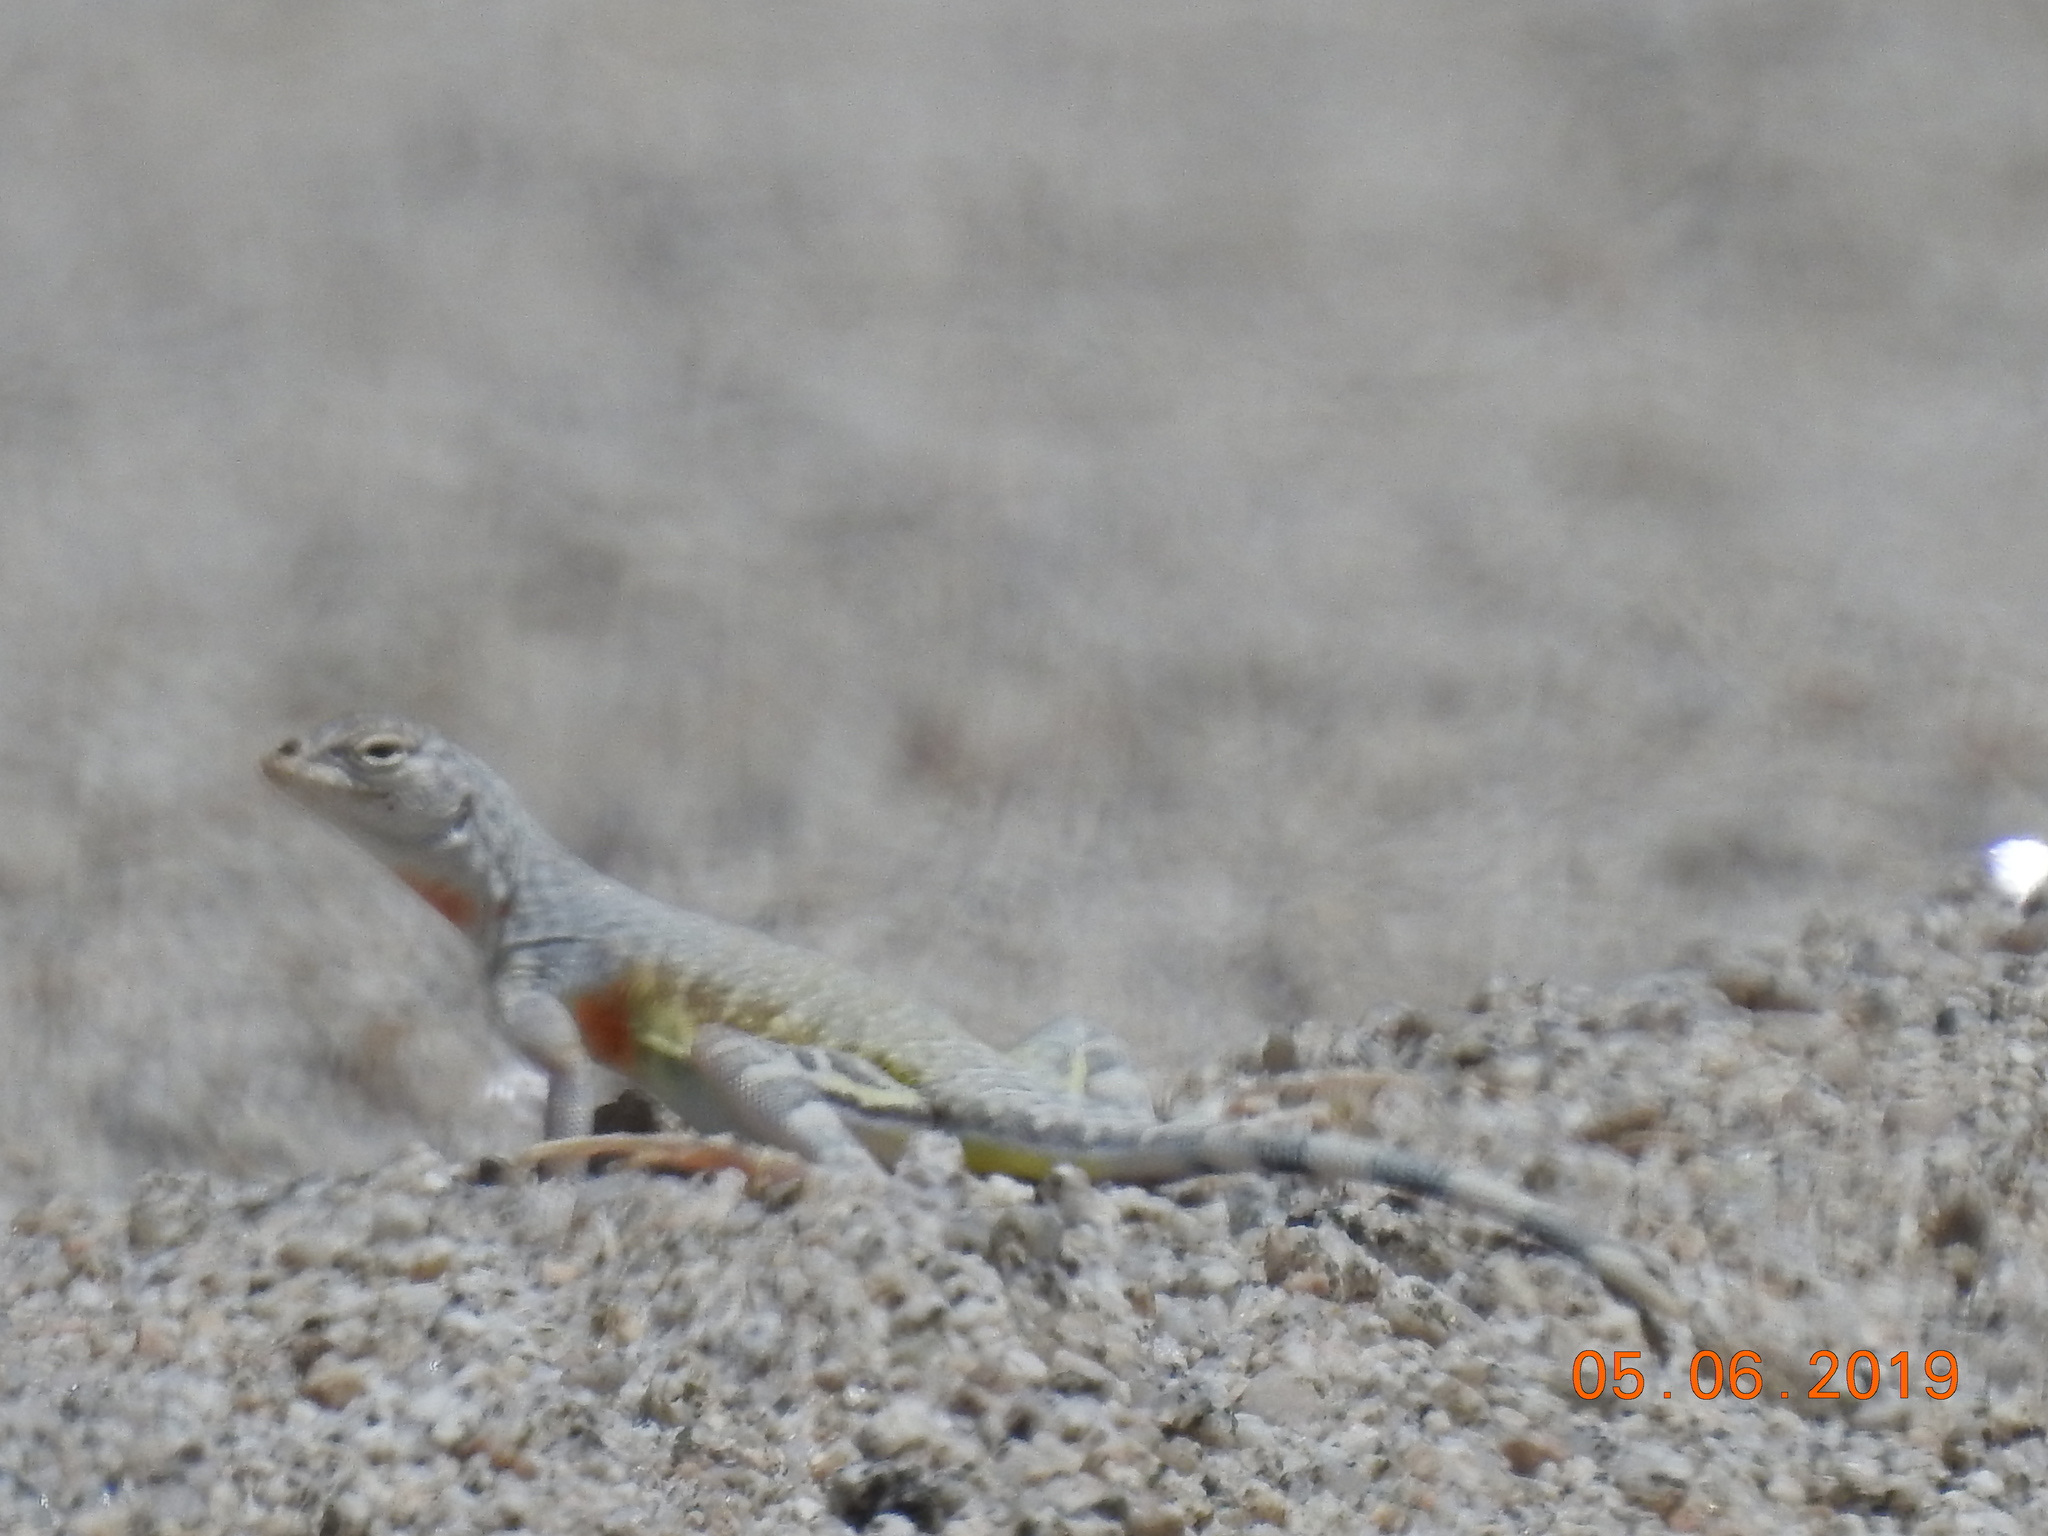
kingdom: Animalia
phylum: Chordata
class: Squamata
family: Phrynosomatidae
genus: Callisaurus
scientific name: Callisaurus draconoides
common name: Zebra-tailed lizard
